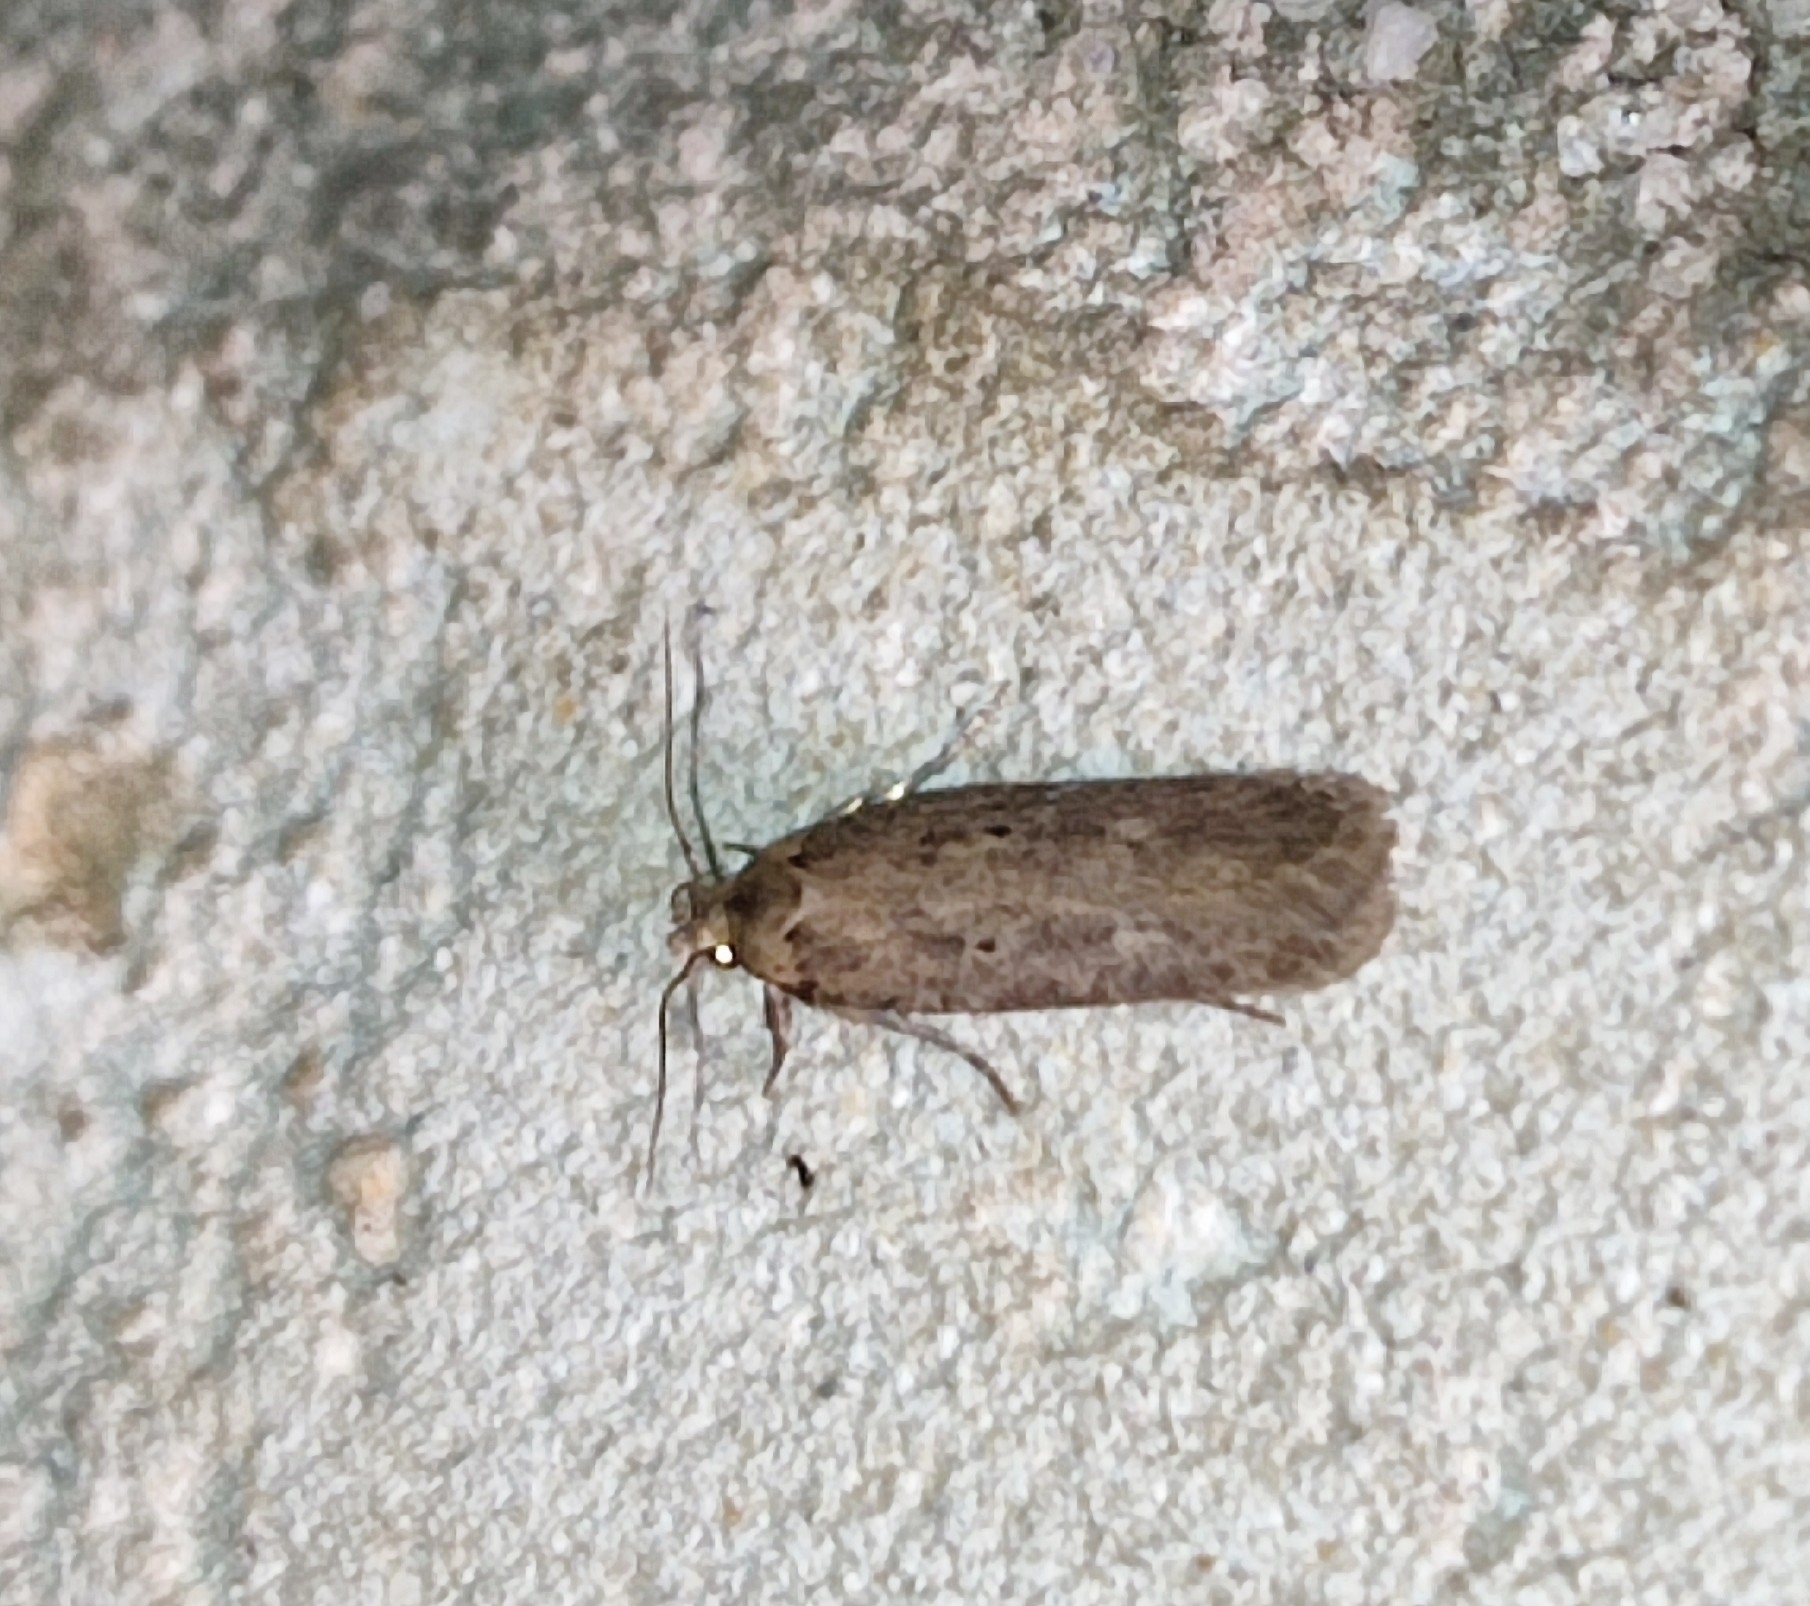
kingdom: Animalia
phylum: Arthropoda
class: Insecta
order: Lepidoptera
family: Gelechiidae
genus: Platyedra
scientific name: Platyedra subcinerea
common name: Moth
